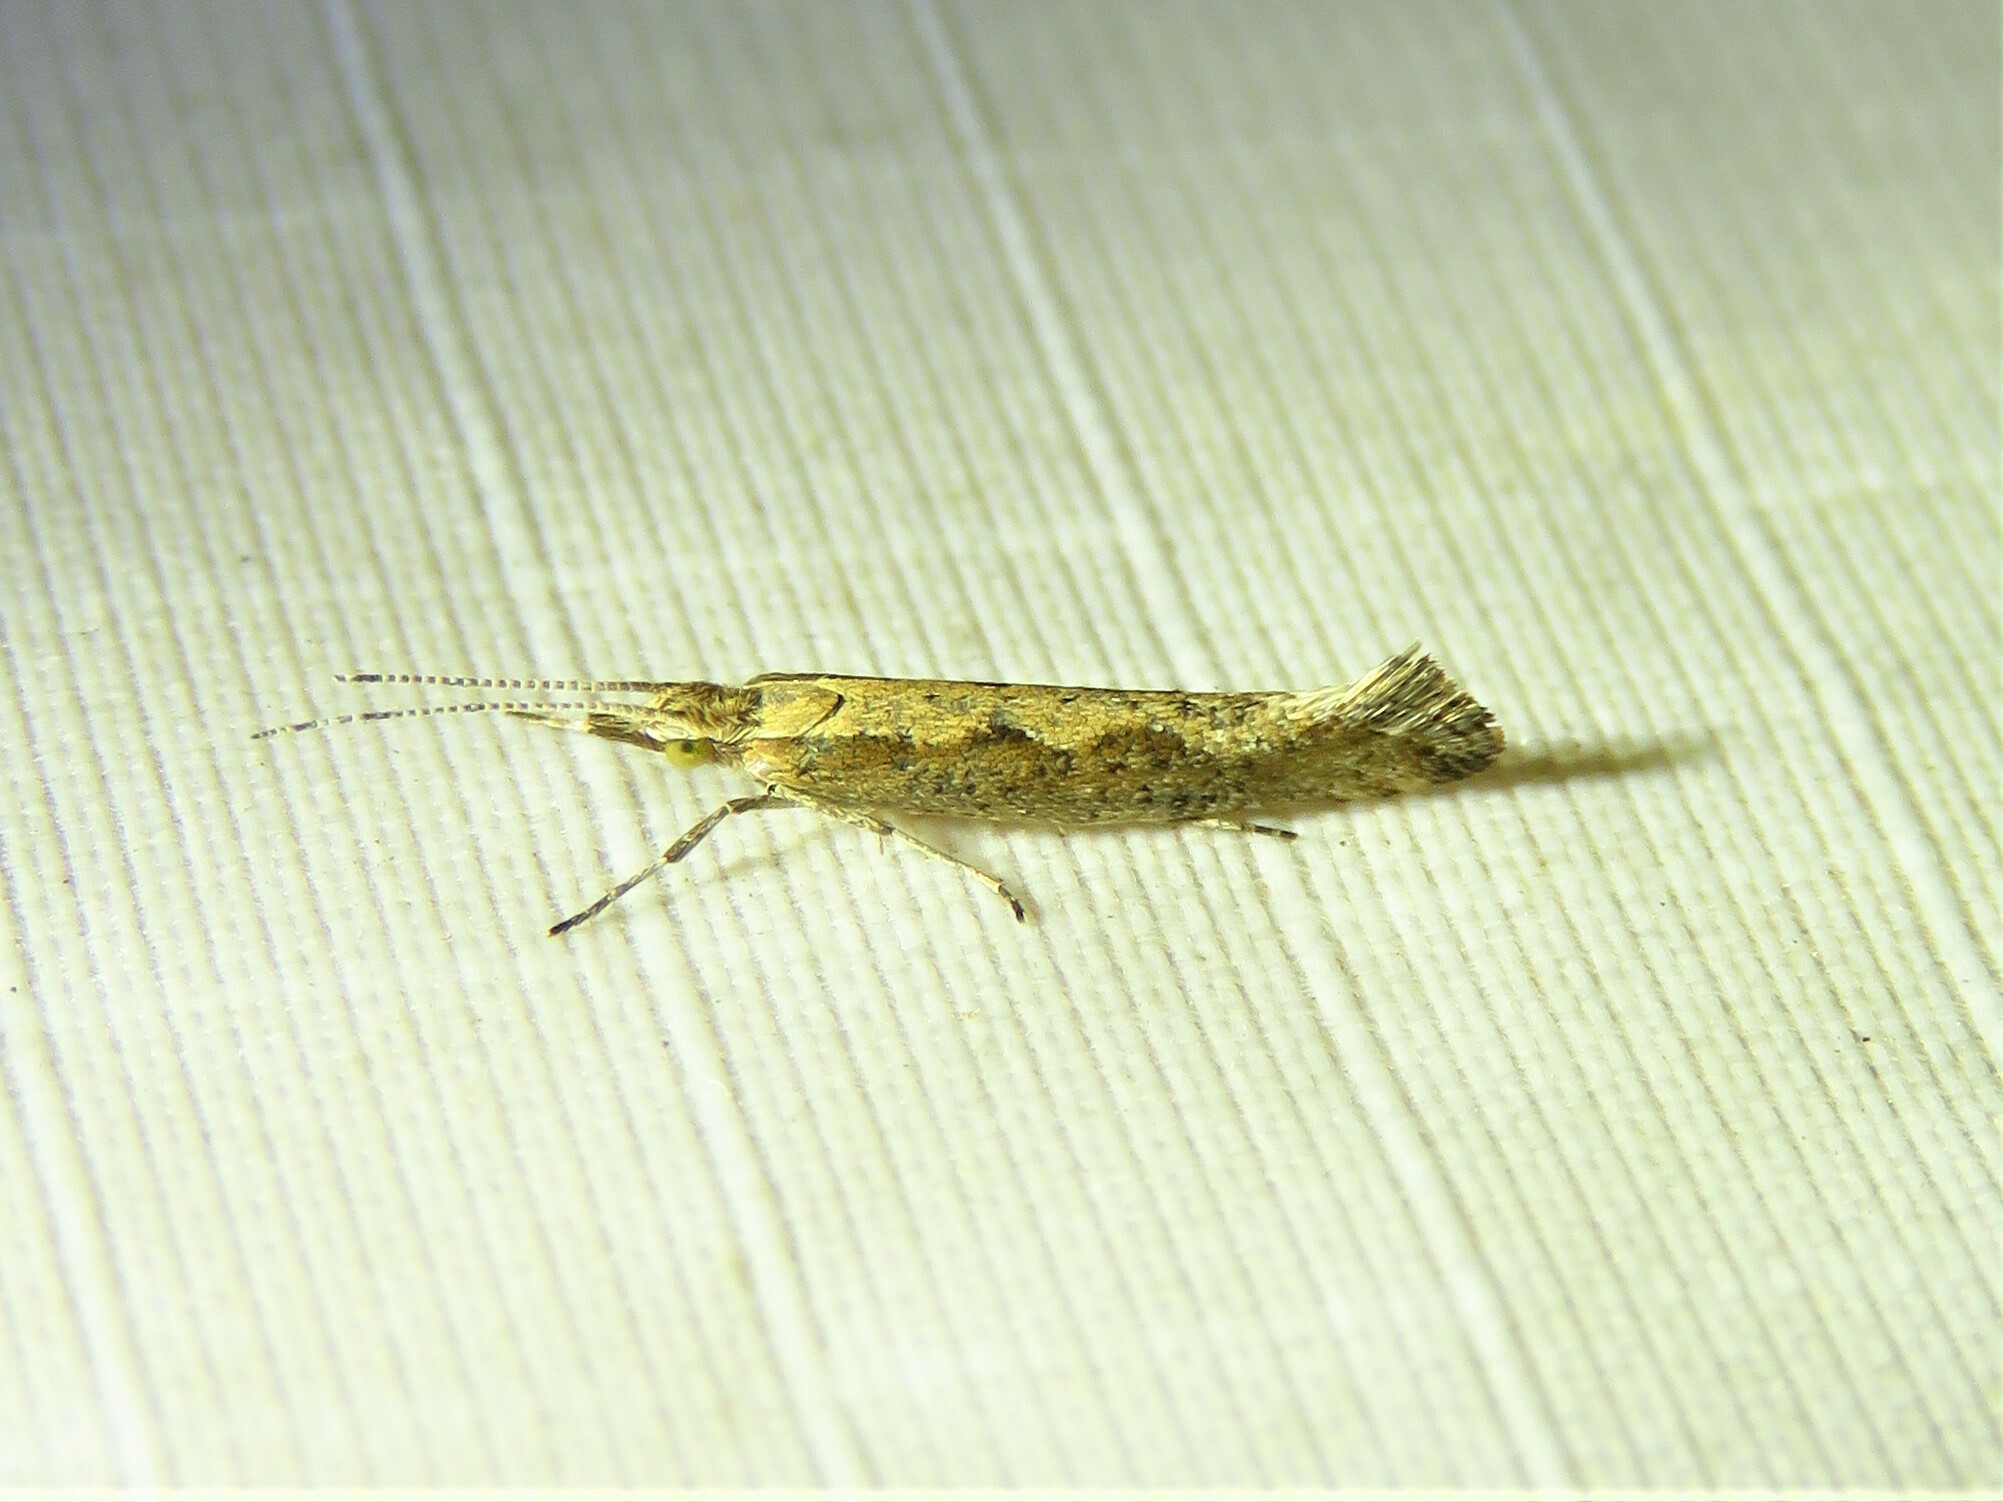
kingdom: Animalia
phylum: Arthropoda
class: Insecta
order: Lepidoptera
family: Plutellidae
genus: Plutella
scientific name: Plutella xylostella
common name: Diamond-back moth
